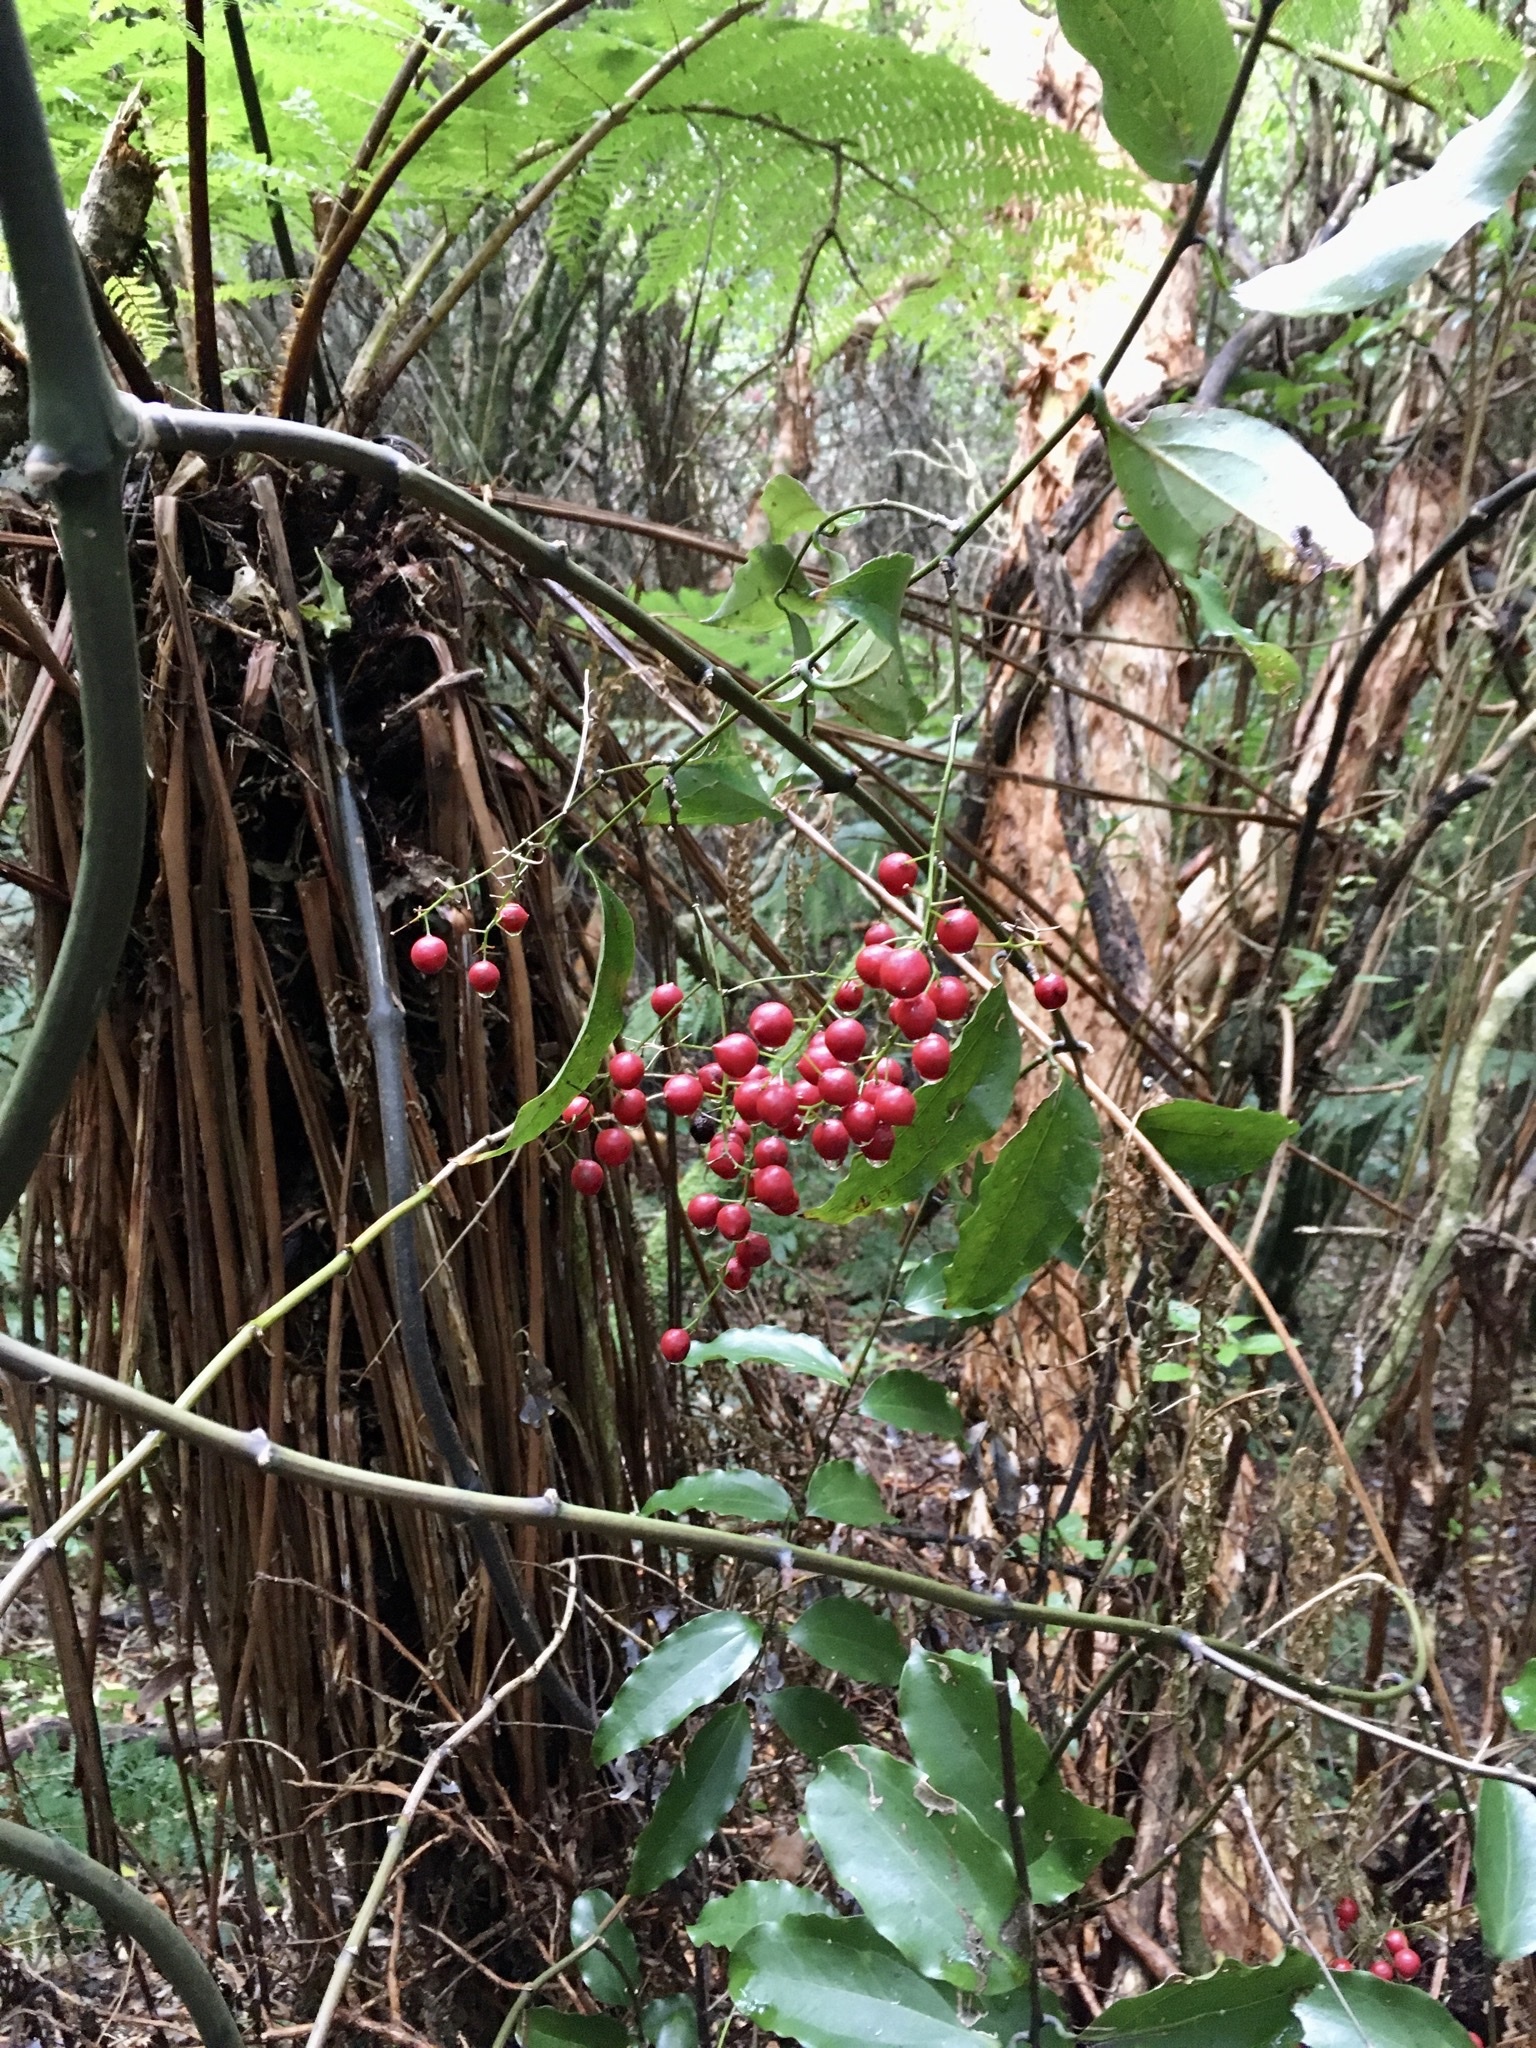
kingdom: Plantae
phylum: Tracheophyta
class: Liliopsida
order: Liliales
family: Ripogonaceae
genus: Ripogonum
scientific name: Ripogonum scandens
